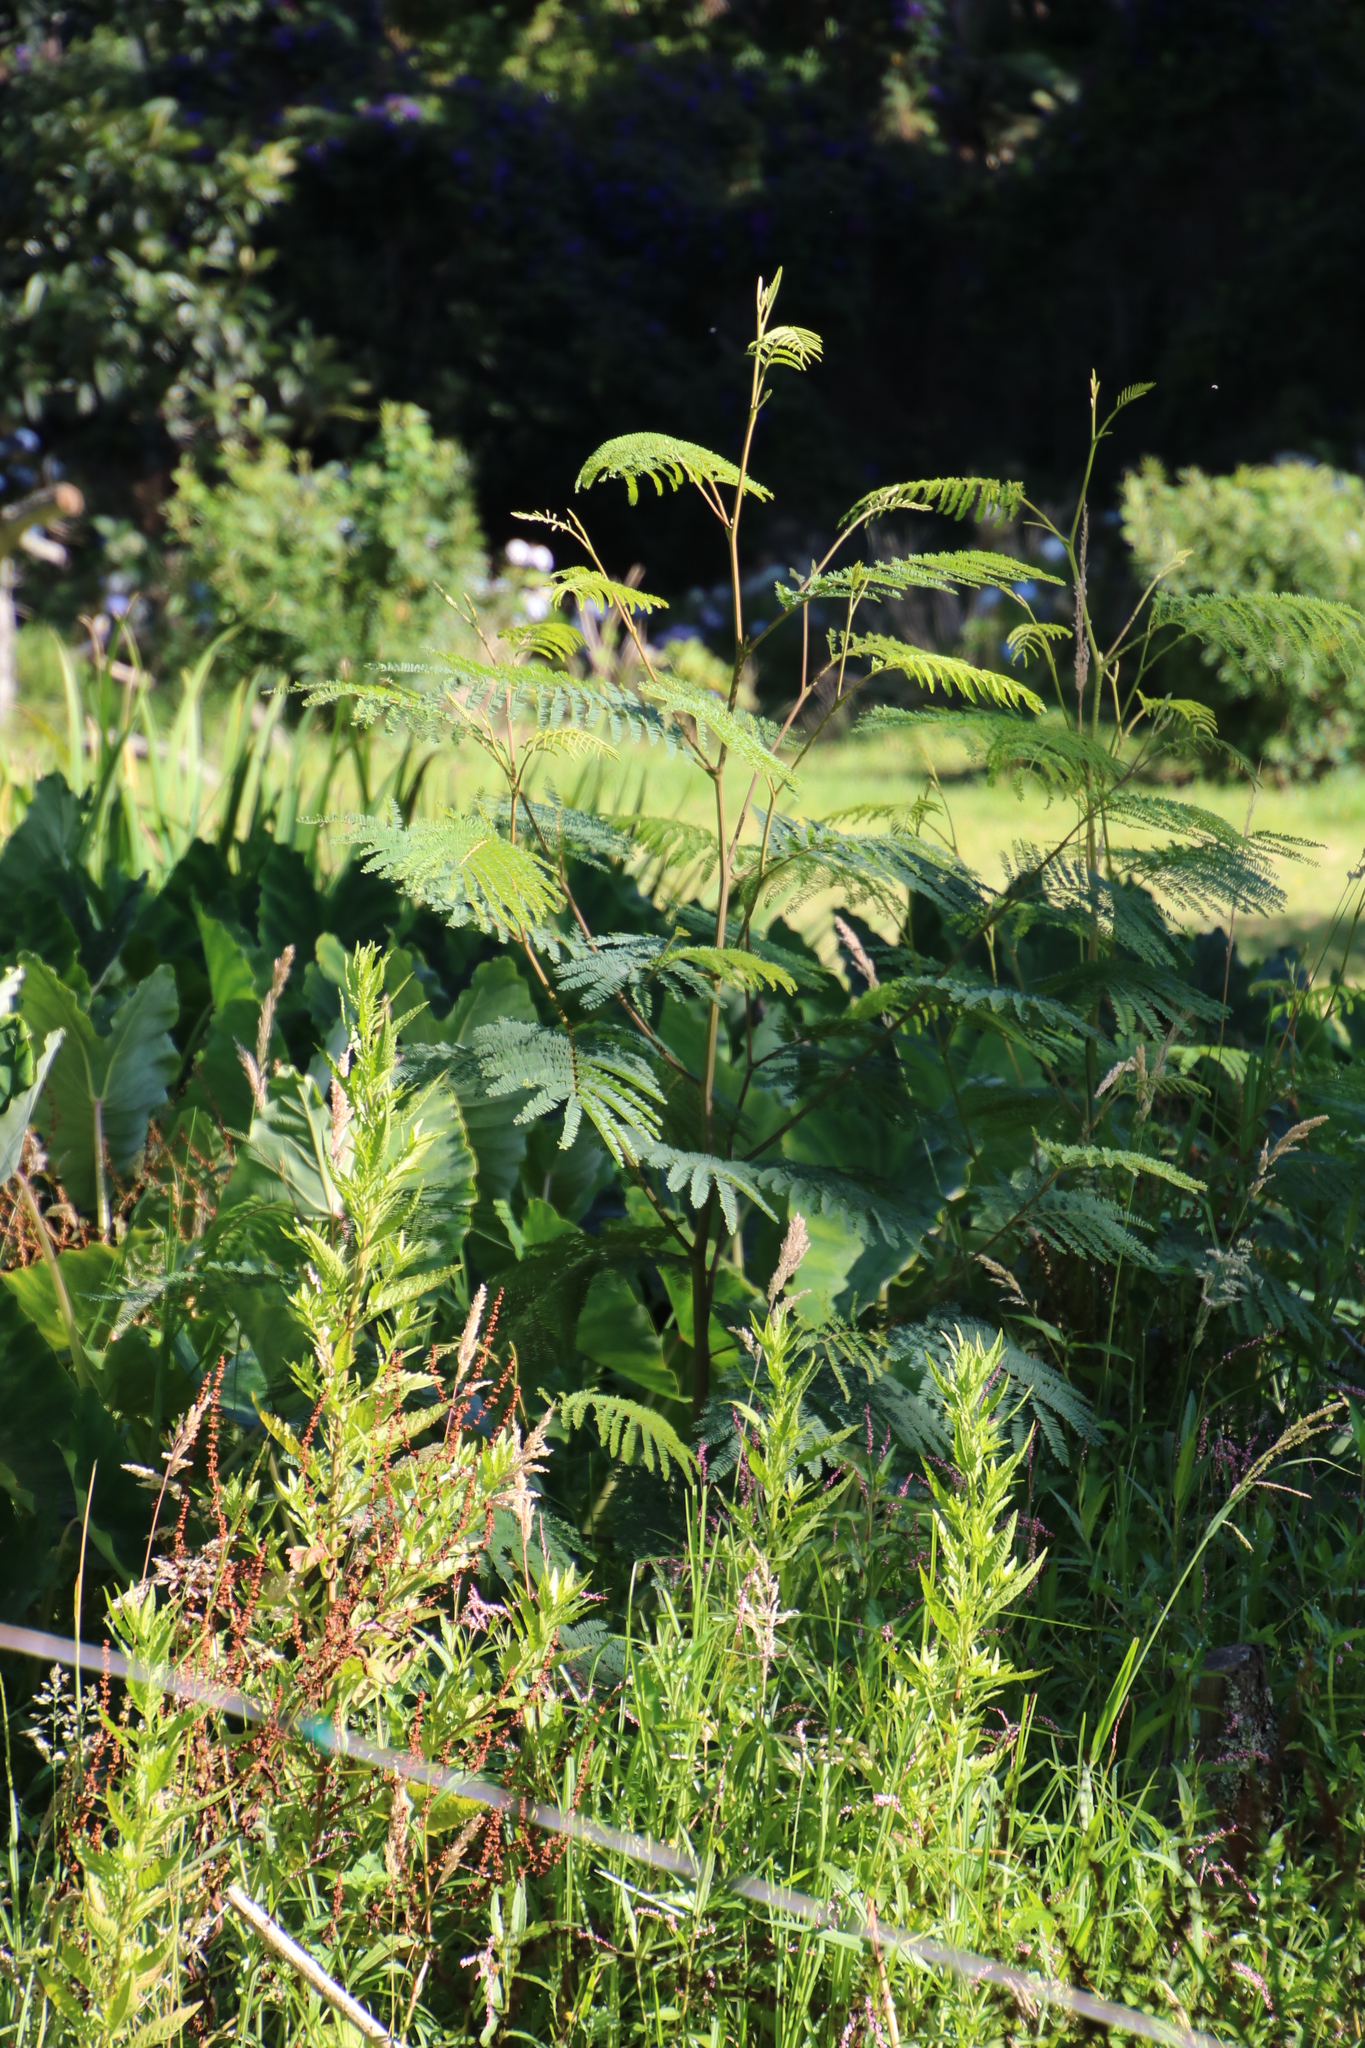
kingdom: Plantae
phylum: Tracheophyta
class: Magnoliopsida
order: Fabales
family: Fabaceae
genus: Paraserianthes
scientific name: Paraserianthes lophantha
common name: Plume albizia
